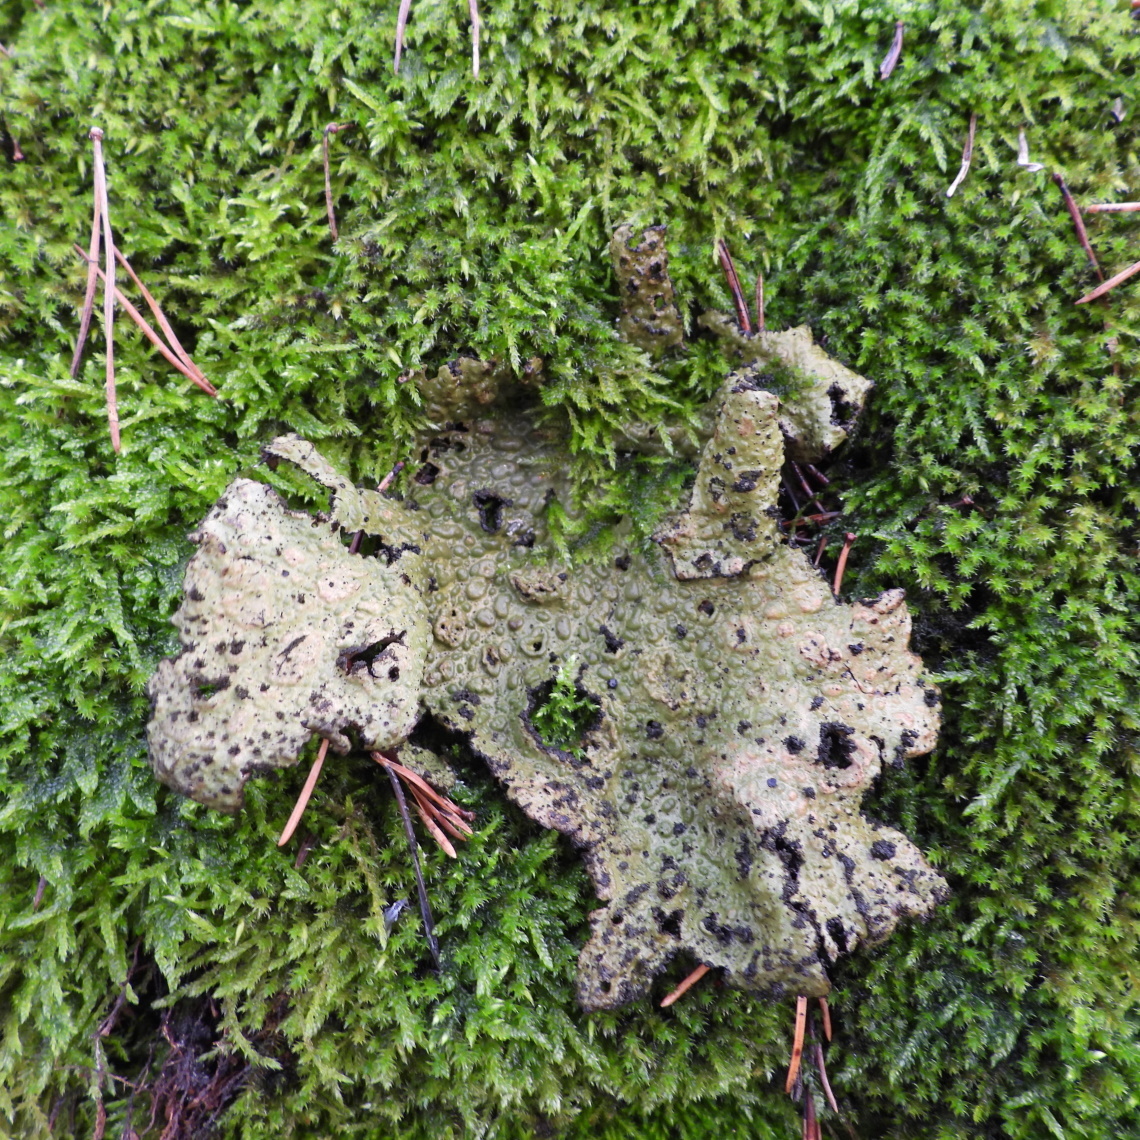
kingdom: Fungi
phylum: Ascomycota
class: Lecanoromycetes
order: Umbilicariales
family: Umbilicariaceae
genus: Lasallia
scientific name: Lasallia pustulata
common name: Blistered toadskin lichen
